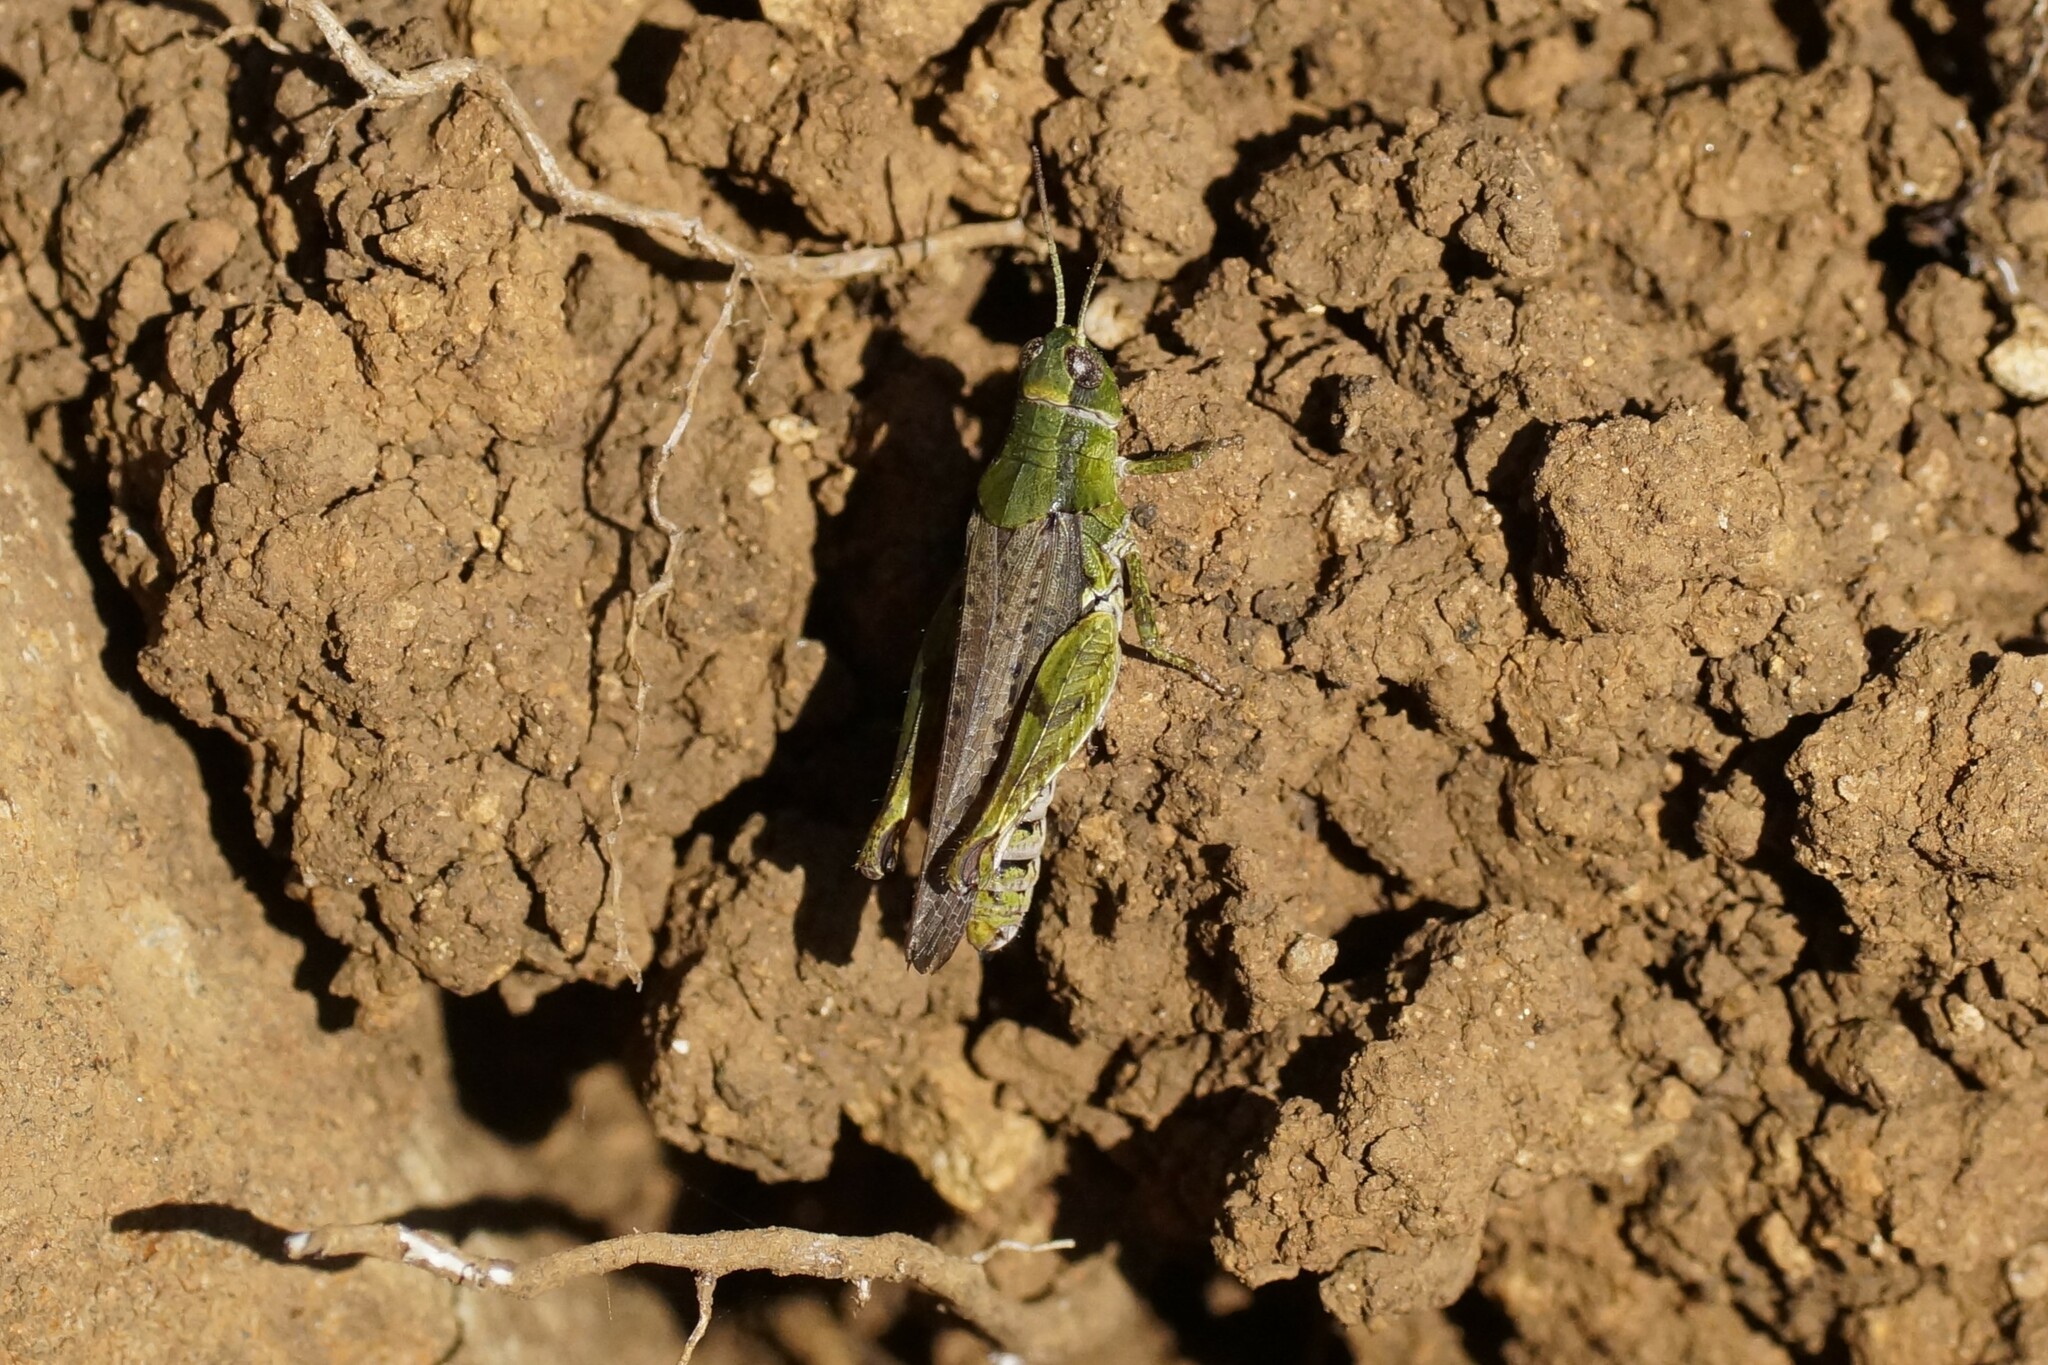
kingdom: Animalia
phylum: Arthropoda
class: Insecta
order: Orthoptera
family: Acrididae
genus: Phaulacridium
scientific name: Phaulacridium vittatum
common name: Wingless grasshopper
